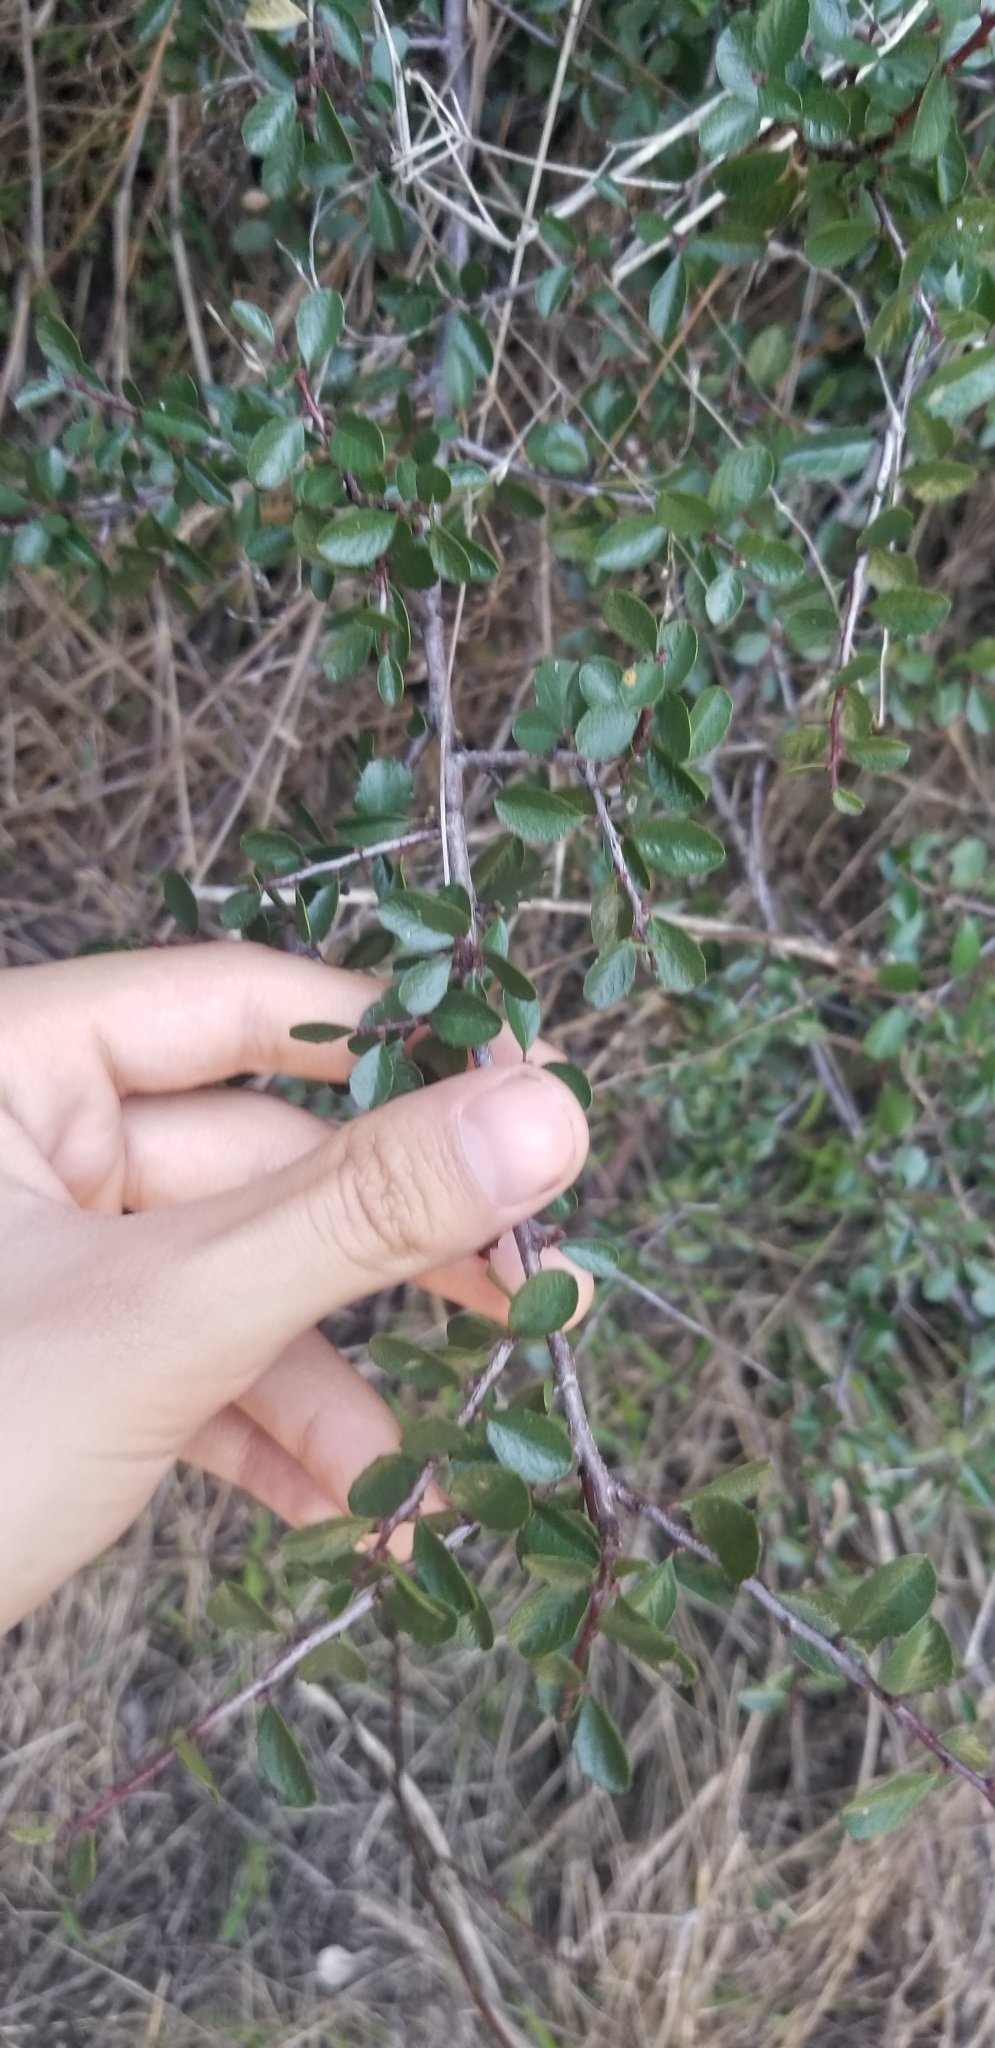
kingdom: Plantae
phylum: Tracheophyta
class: Magnoliopsida
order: Rosales
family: Rhamnaceae
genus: Endotropis
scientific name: Endotropis crocea
